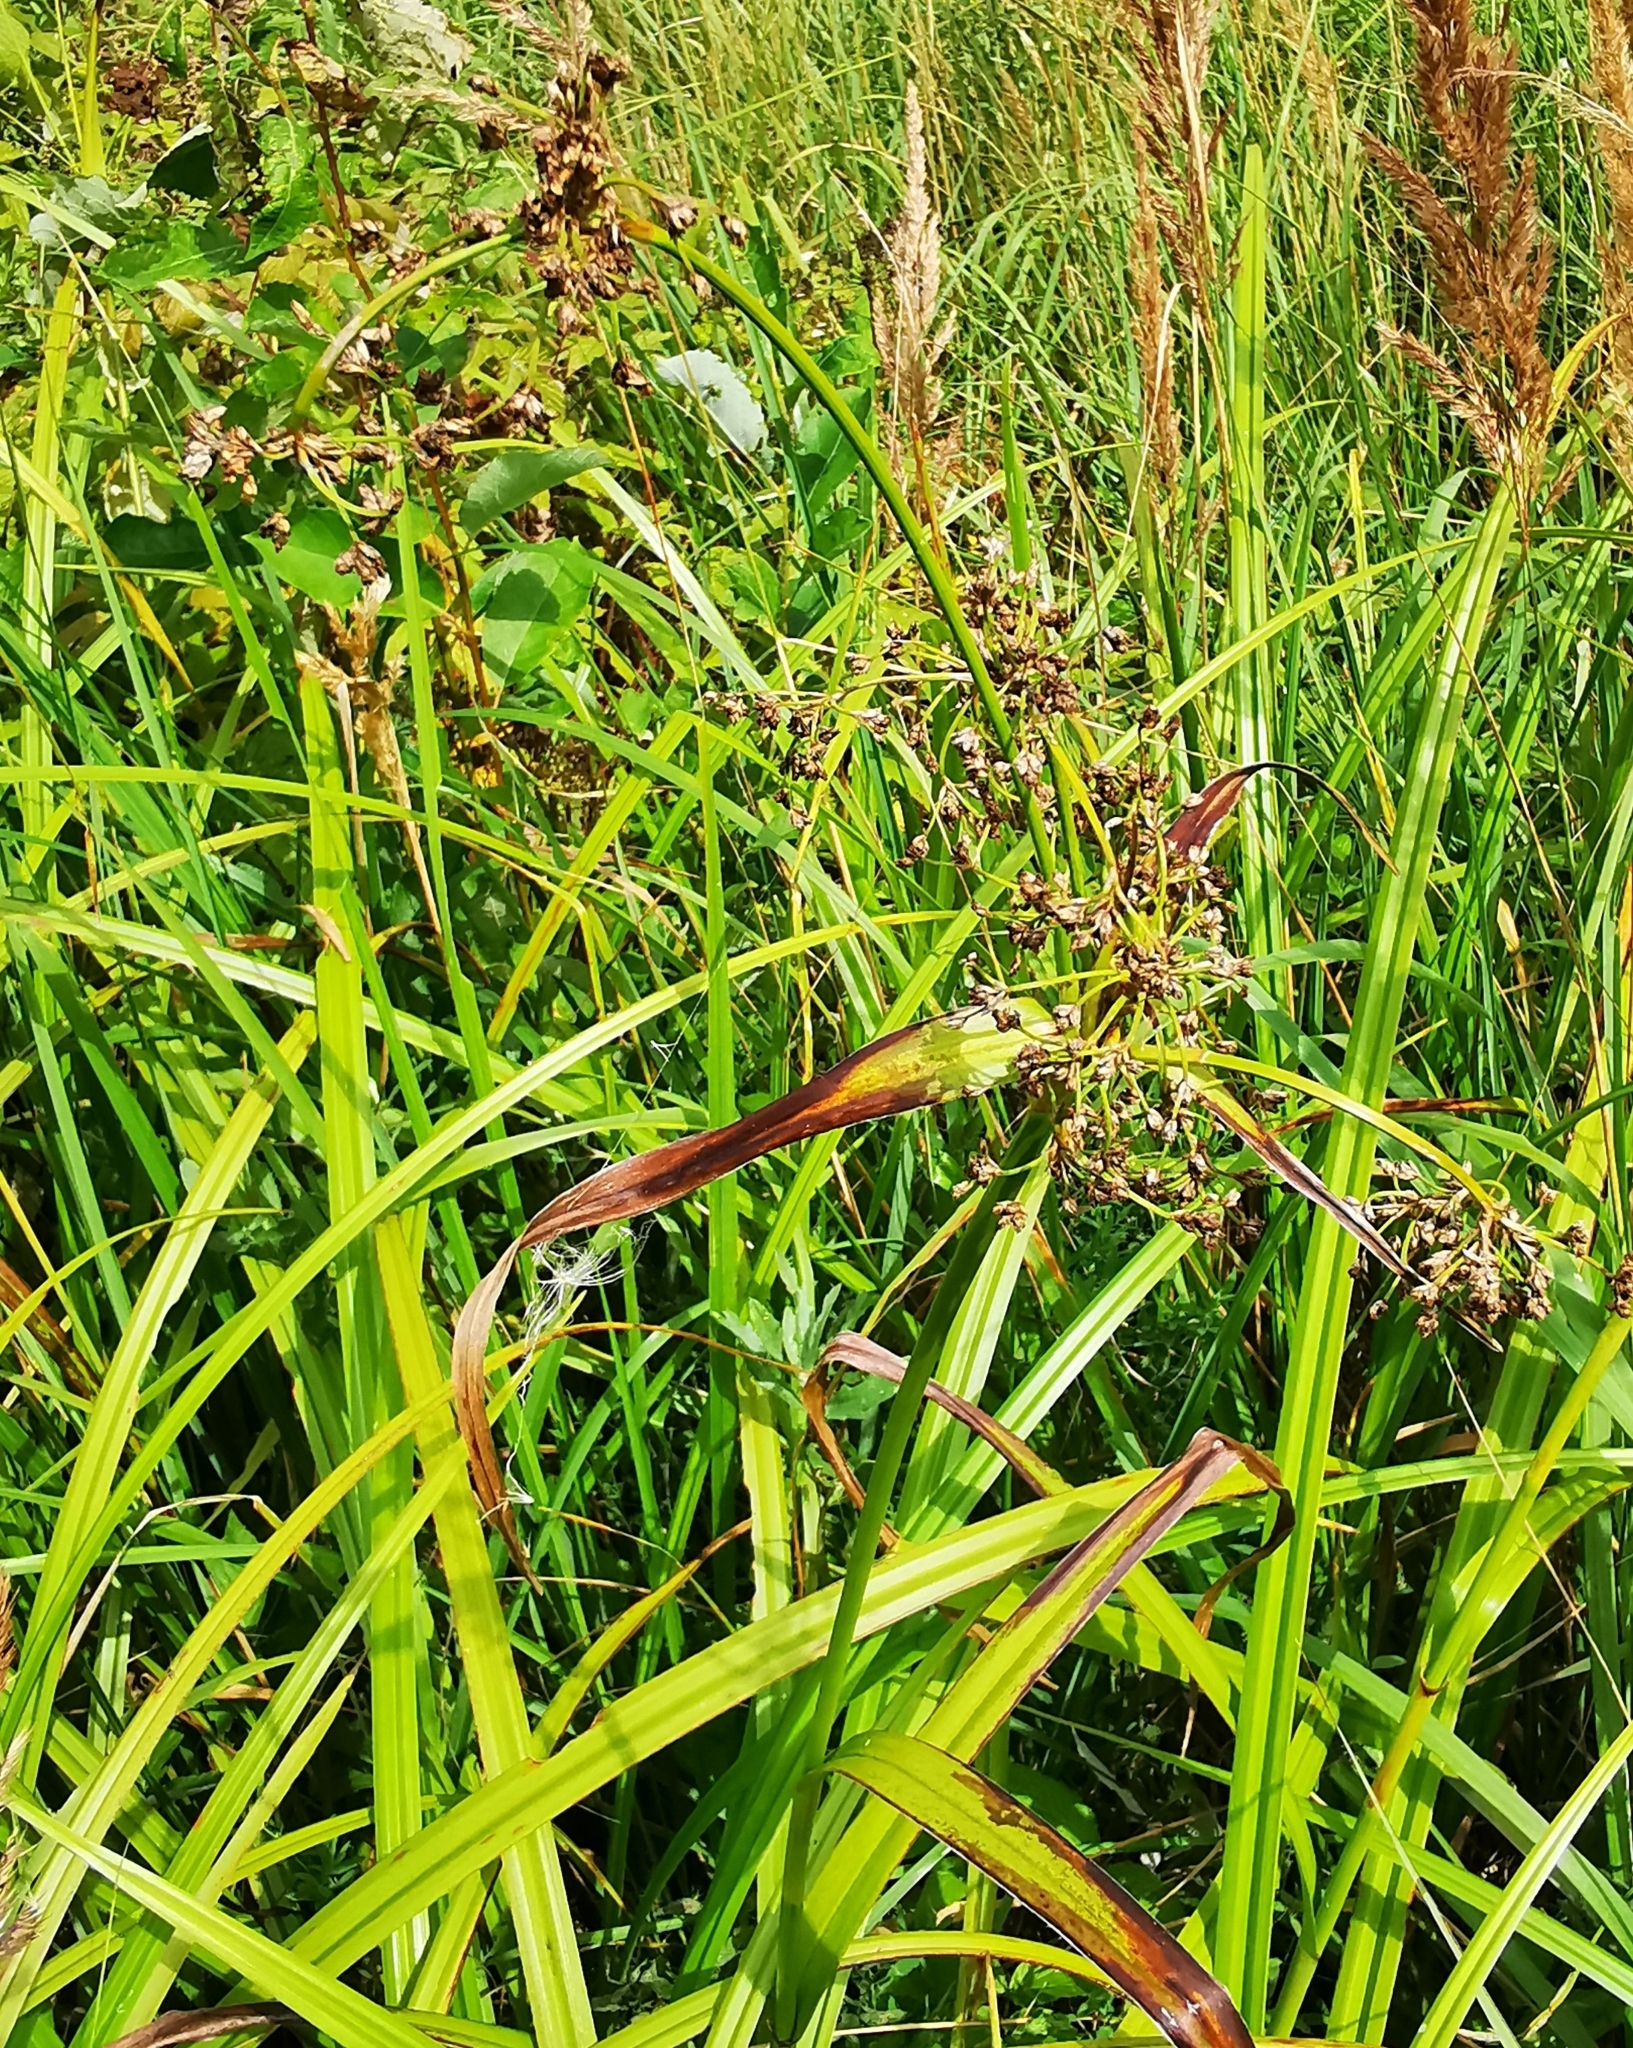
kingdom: Plantae
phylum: Tracheophyta
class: Liliopsida
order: Poales
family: Cyperaceae
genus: Scirpus
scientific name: Scirpus sylvaticus
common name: Wood club-rush
